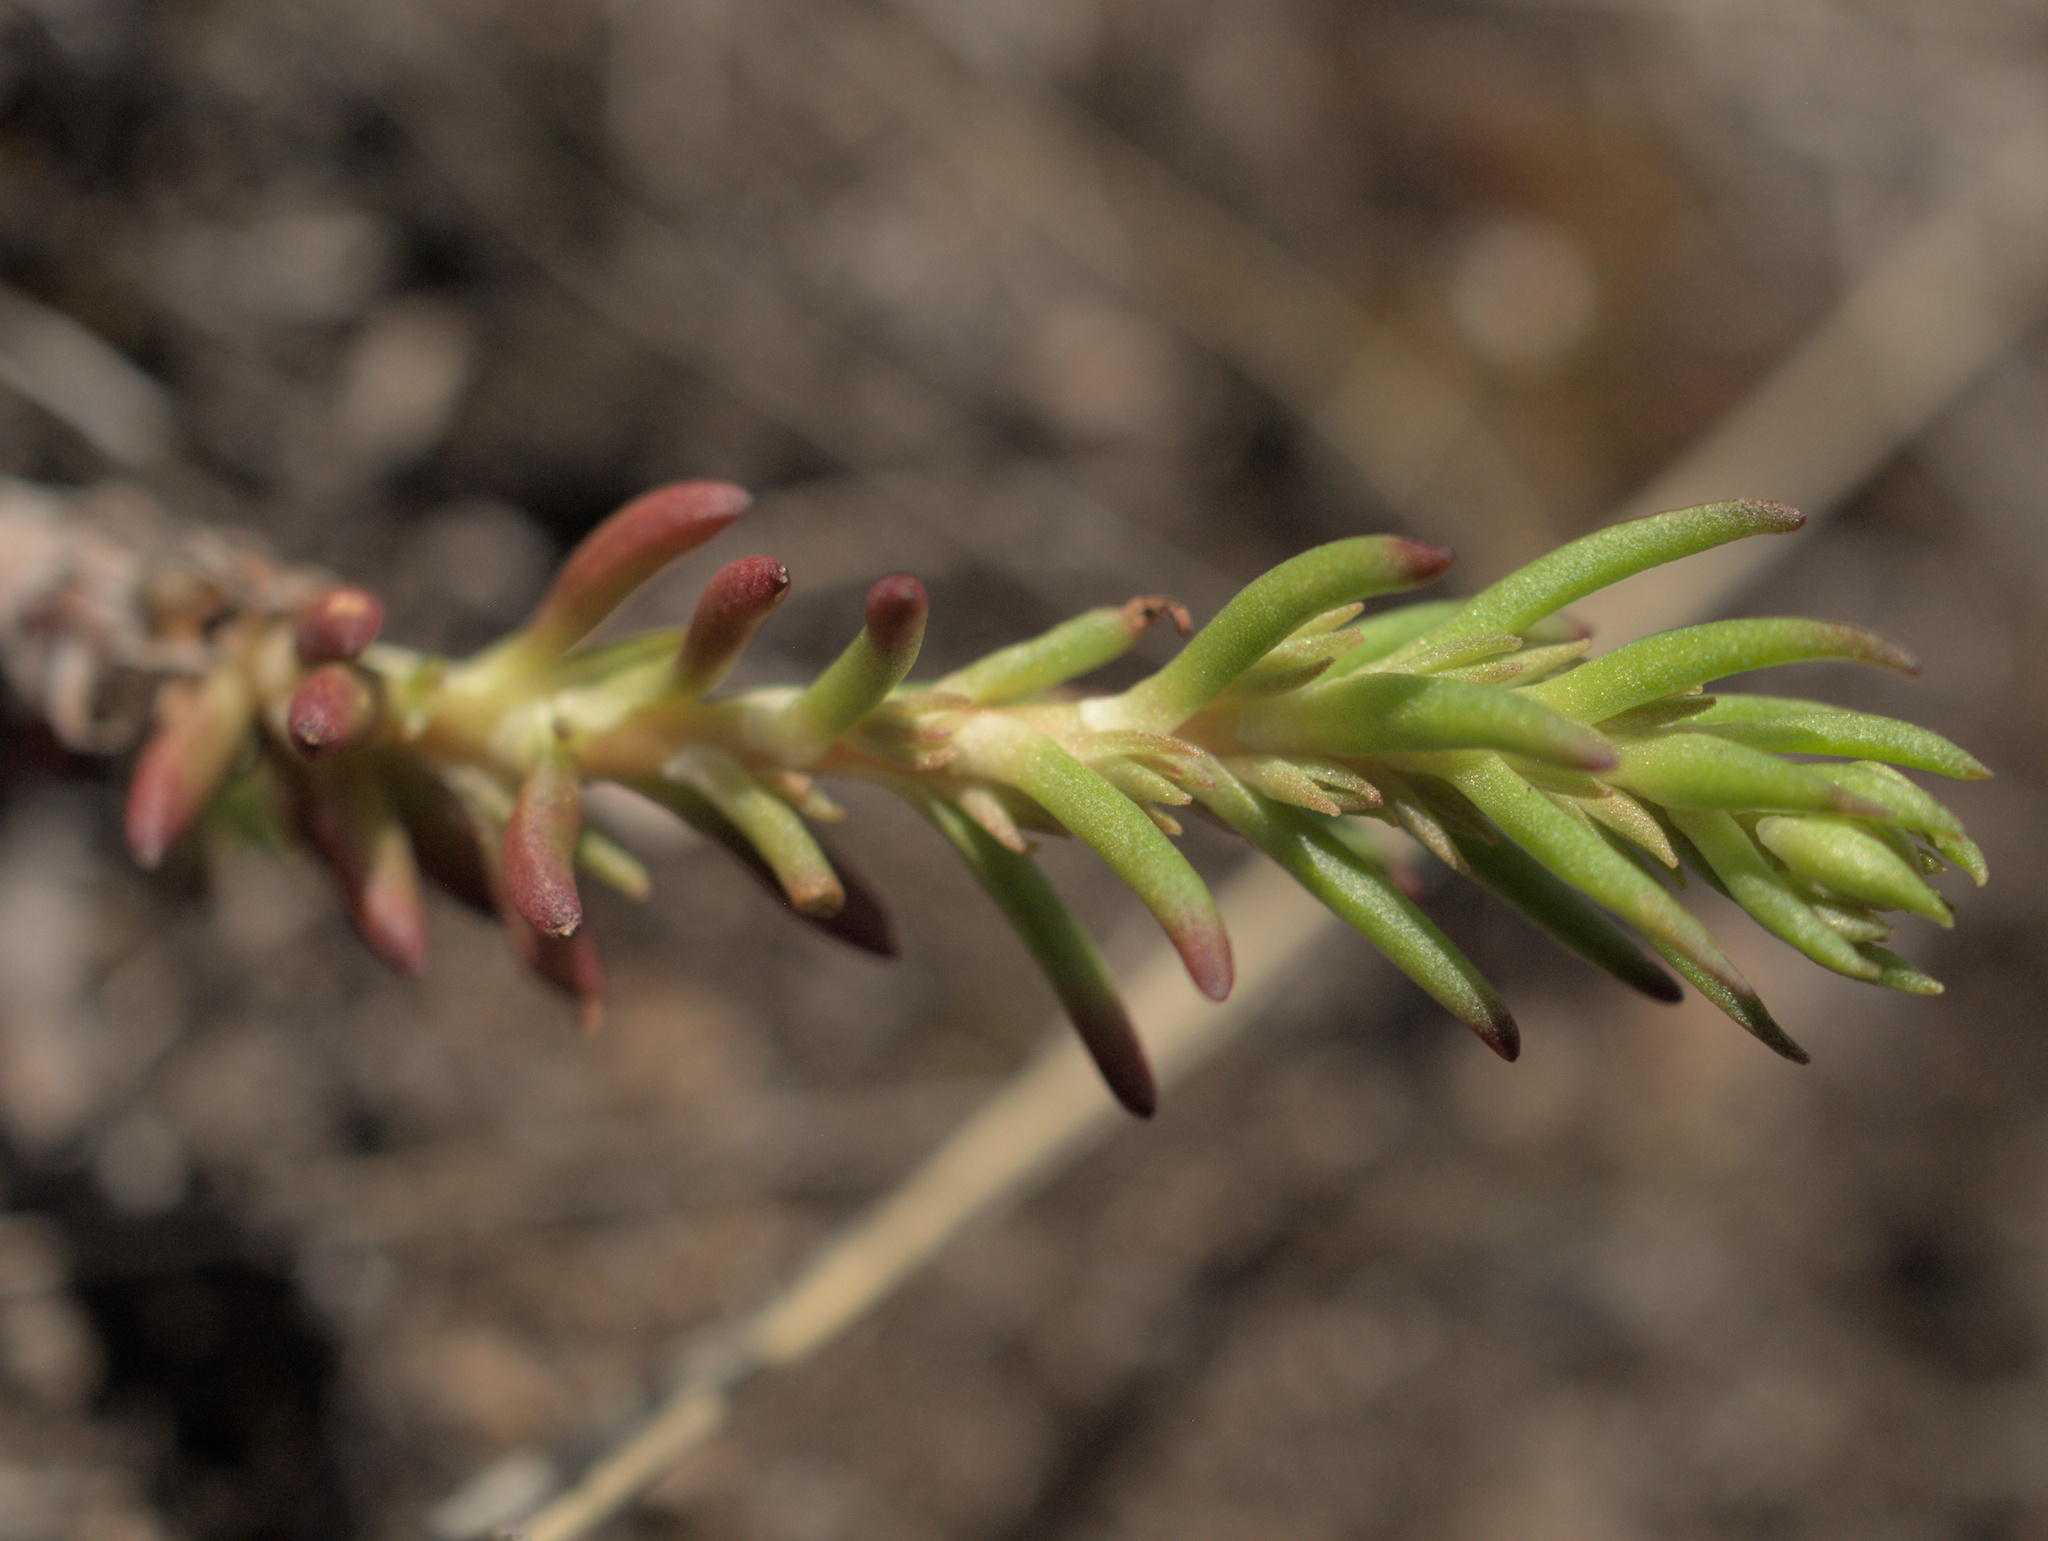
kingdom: Plantae
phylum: Tracheophyta
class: Magnoliopsida
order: Saxifragales
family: Crassulaceae
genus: Sedum
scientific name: Sedum stenopetalum
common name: Narrow-petaled stonecrop
